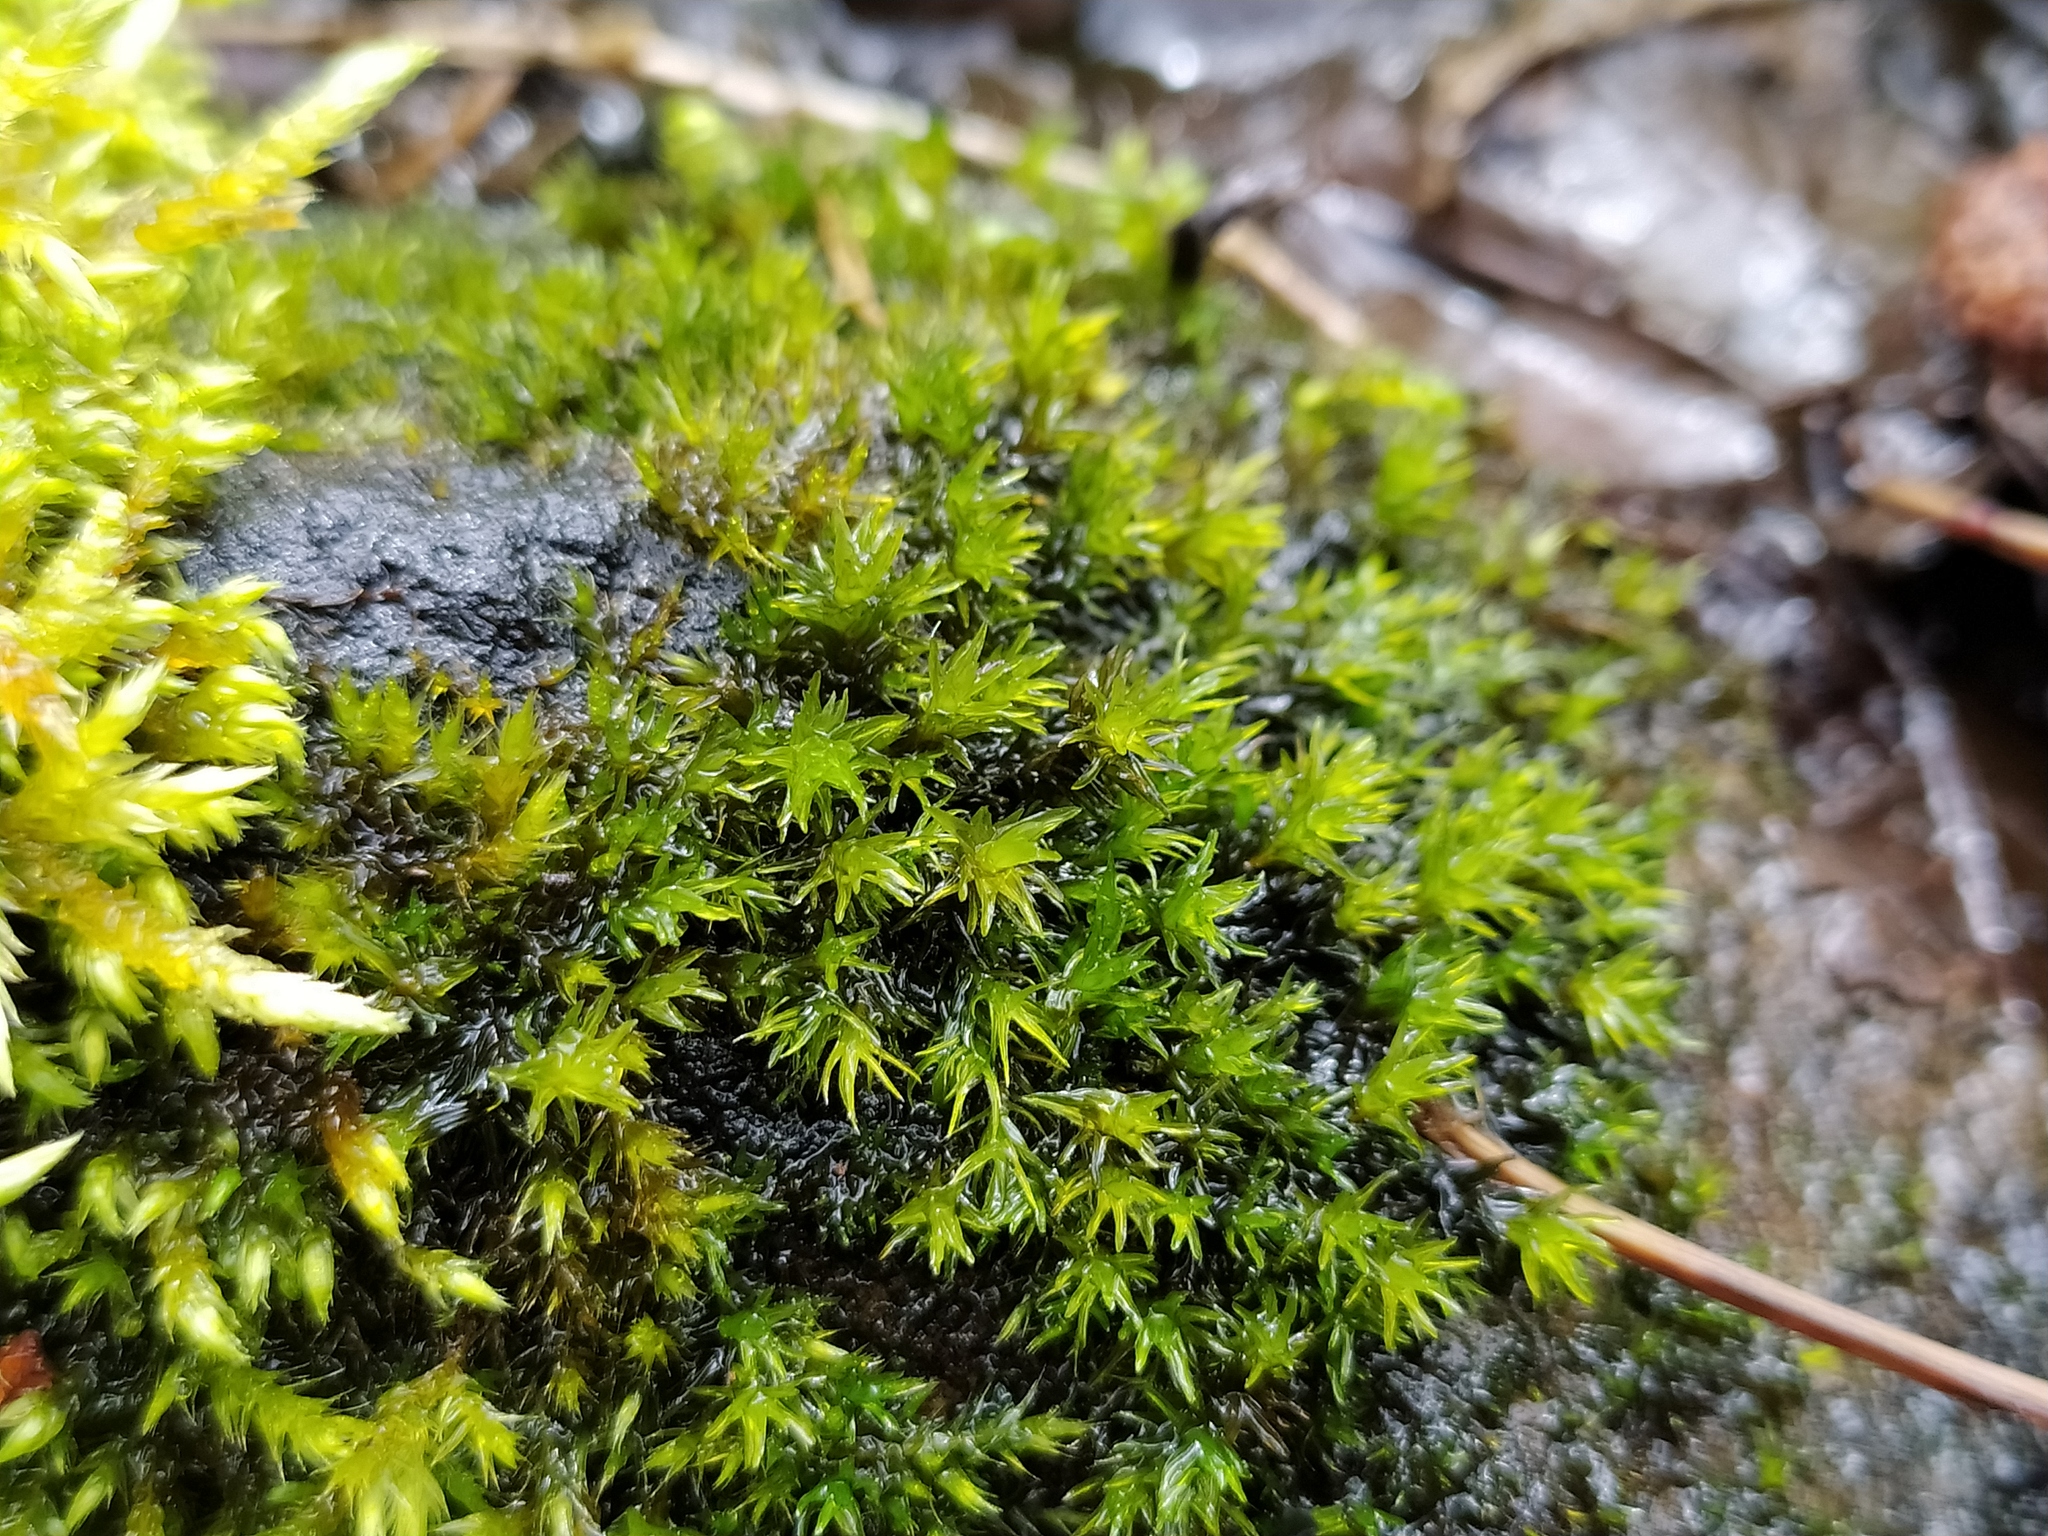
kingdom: Plantae
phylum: Bryophyta
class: Bryopsida
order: Grimmiales
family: Grimmiaceae
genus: Codriophorus
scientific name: Codriophorus aquaticus
